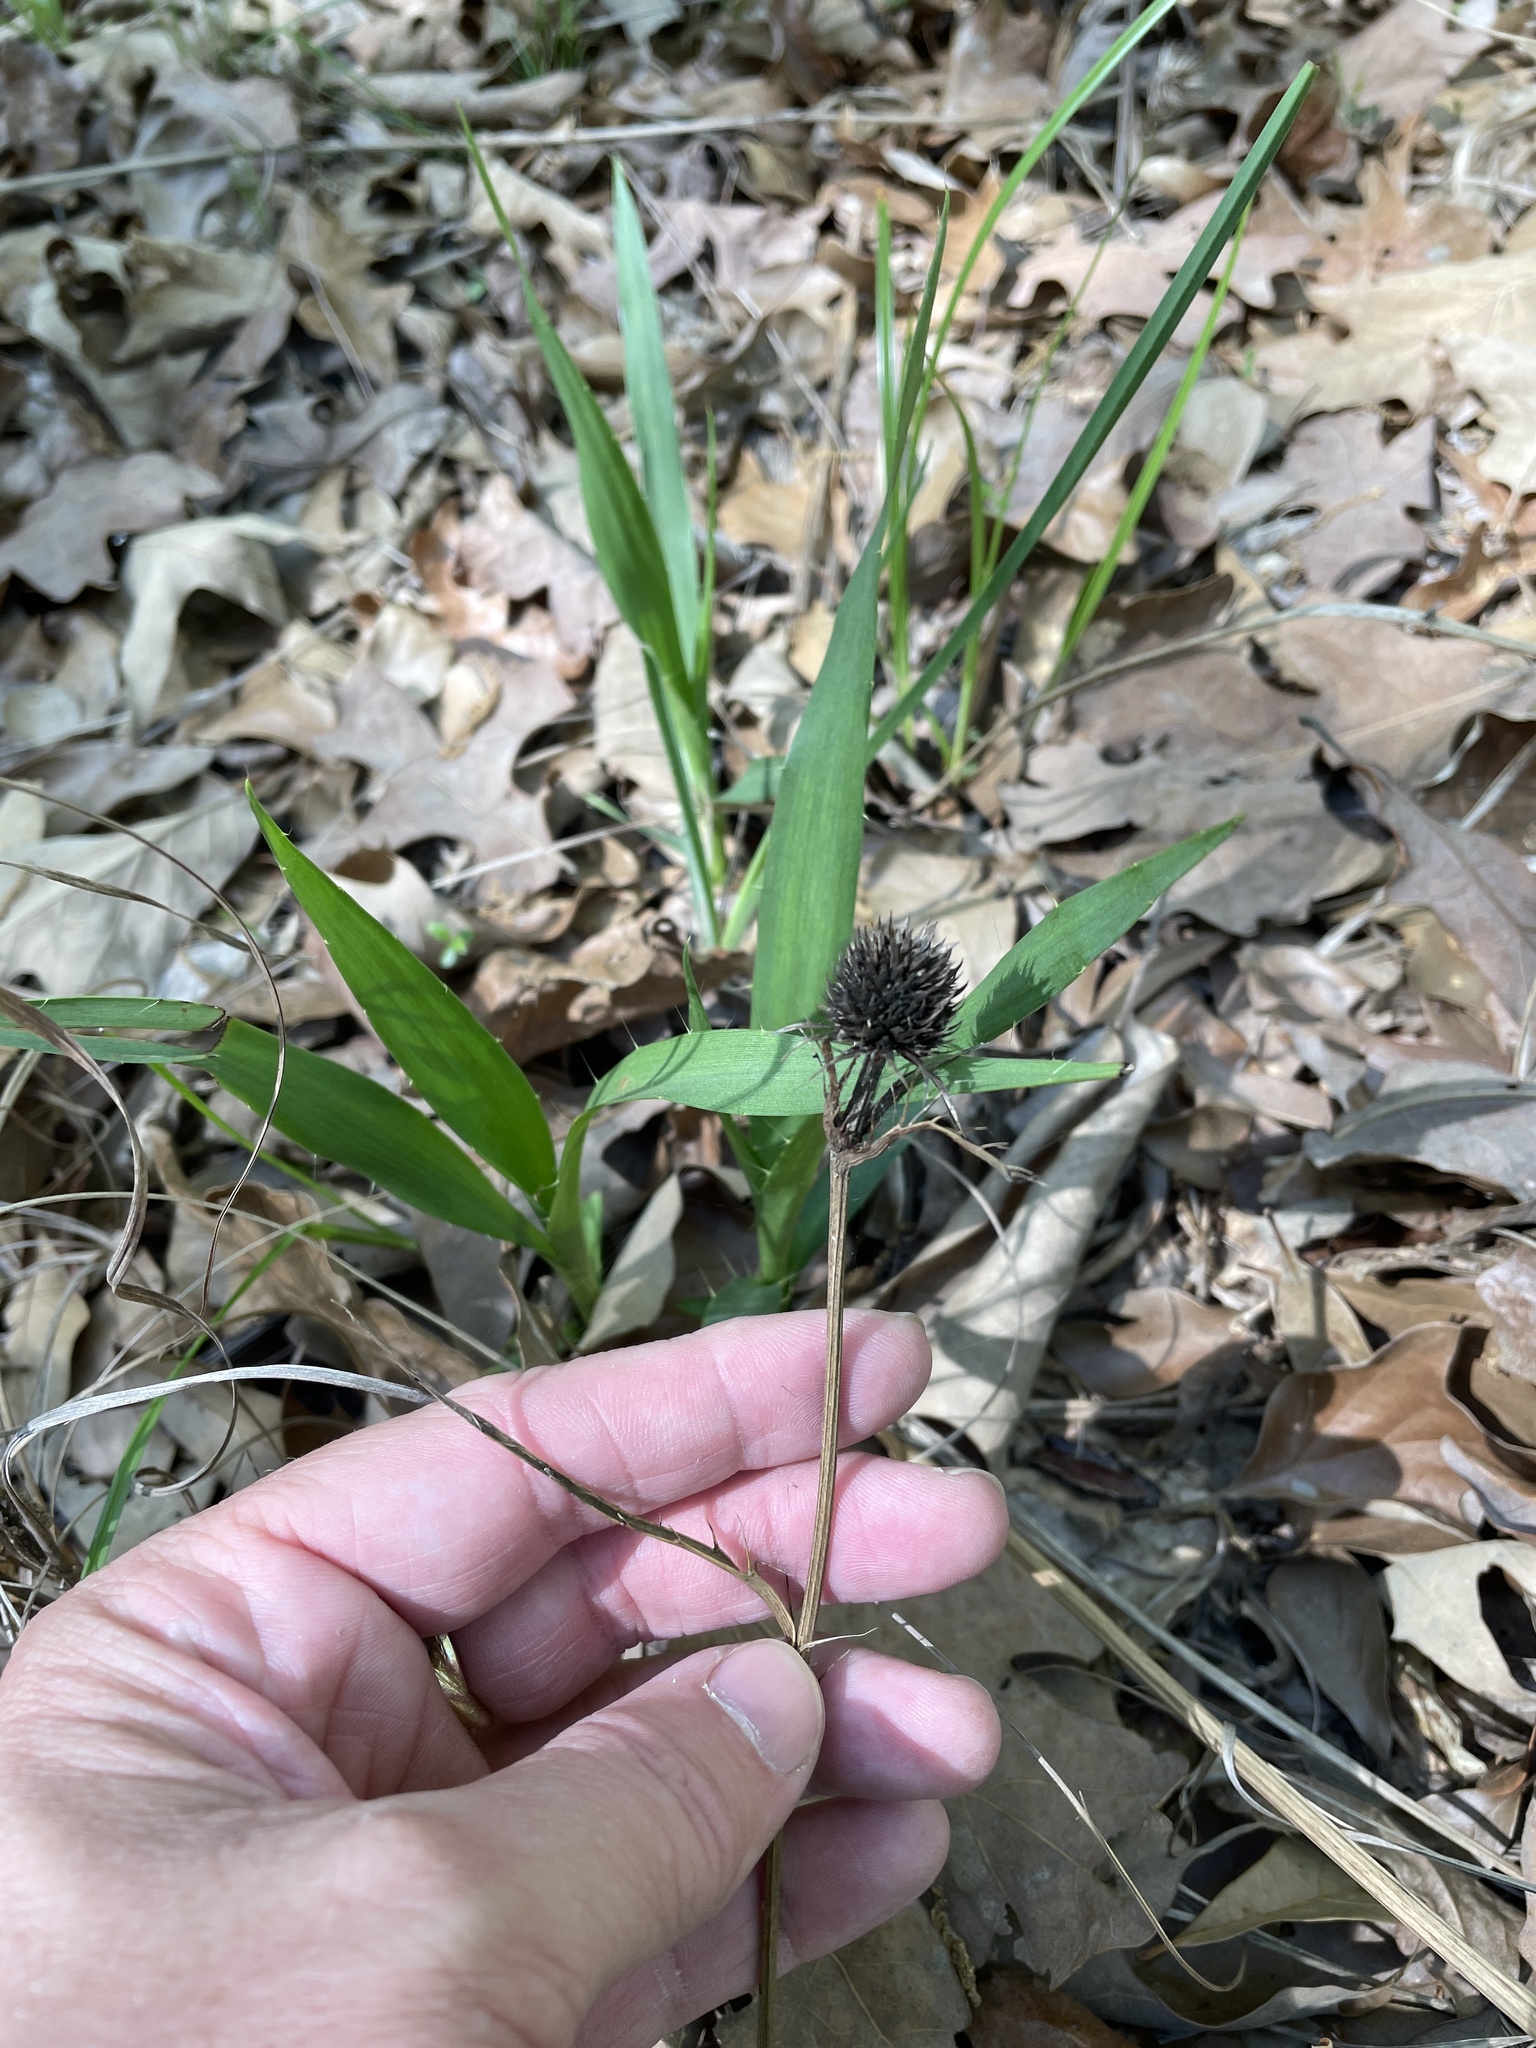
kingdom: Plantae
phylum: Tracheophyta
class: Magnoliopsida
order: Apiales
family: Apiaceae
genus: Eryngium
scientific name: Eryngium yuccifolium
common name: Button eryngo
